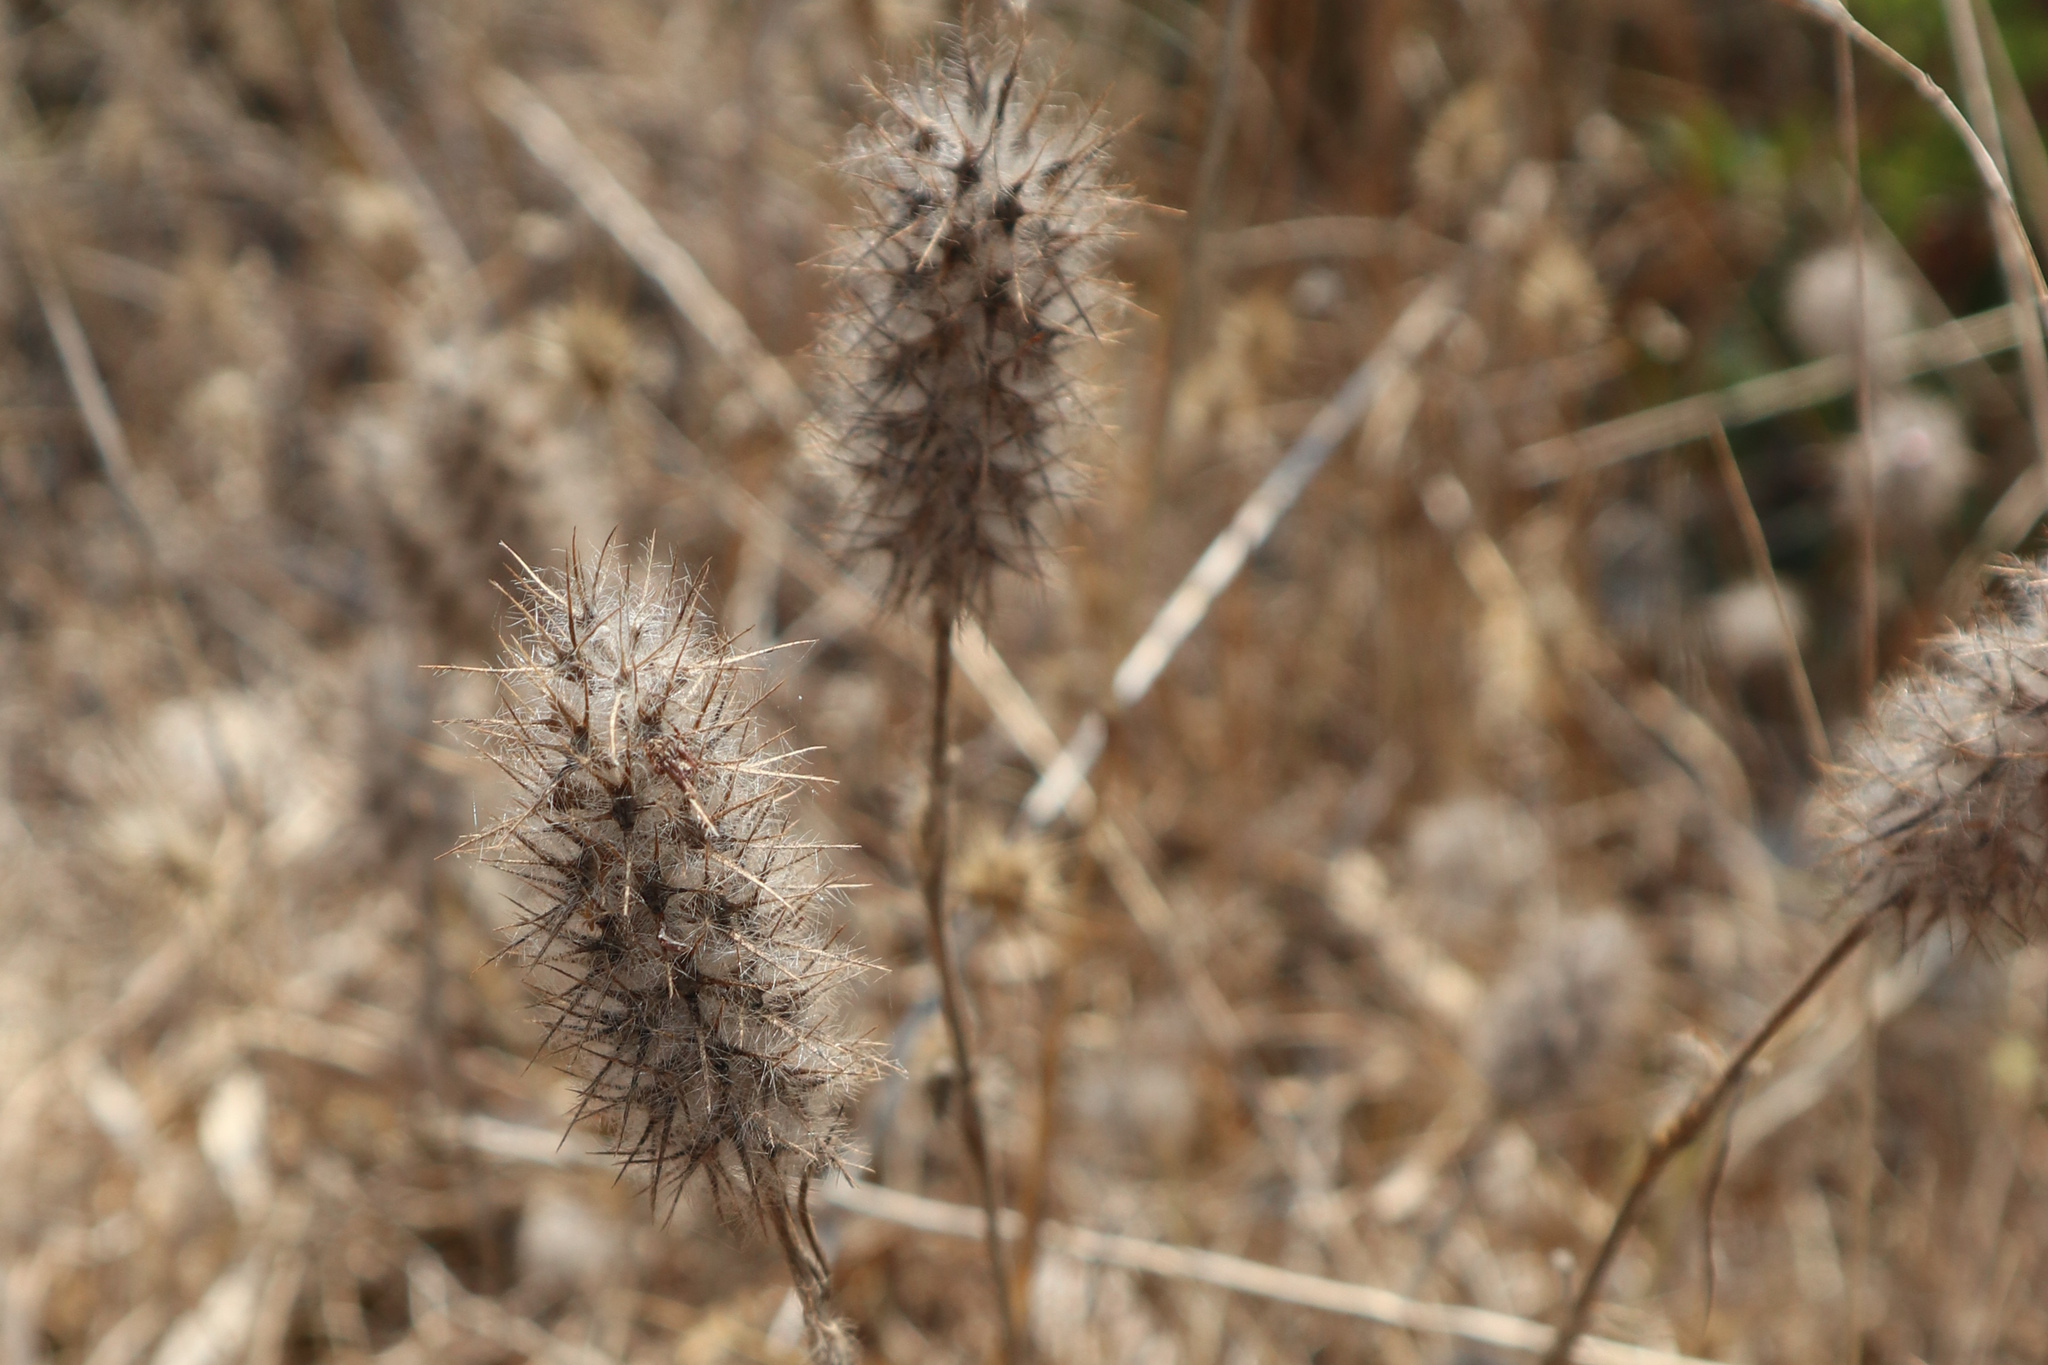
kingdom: Plantae
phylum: Tracheophyta
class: Magnoliopsida
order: Fabales
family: Fabaceae
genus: Trifolium
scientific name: Trifolium angustifolium
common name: Narrow clover
